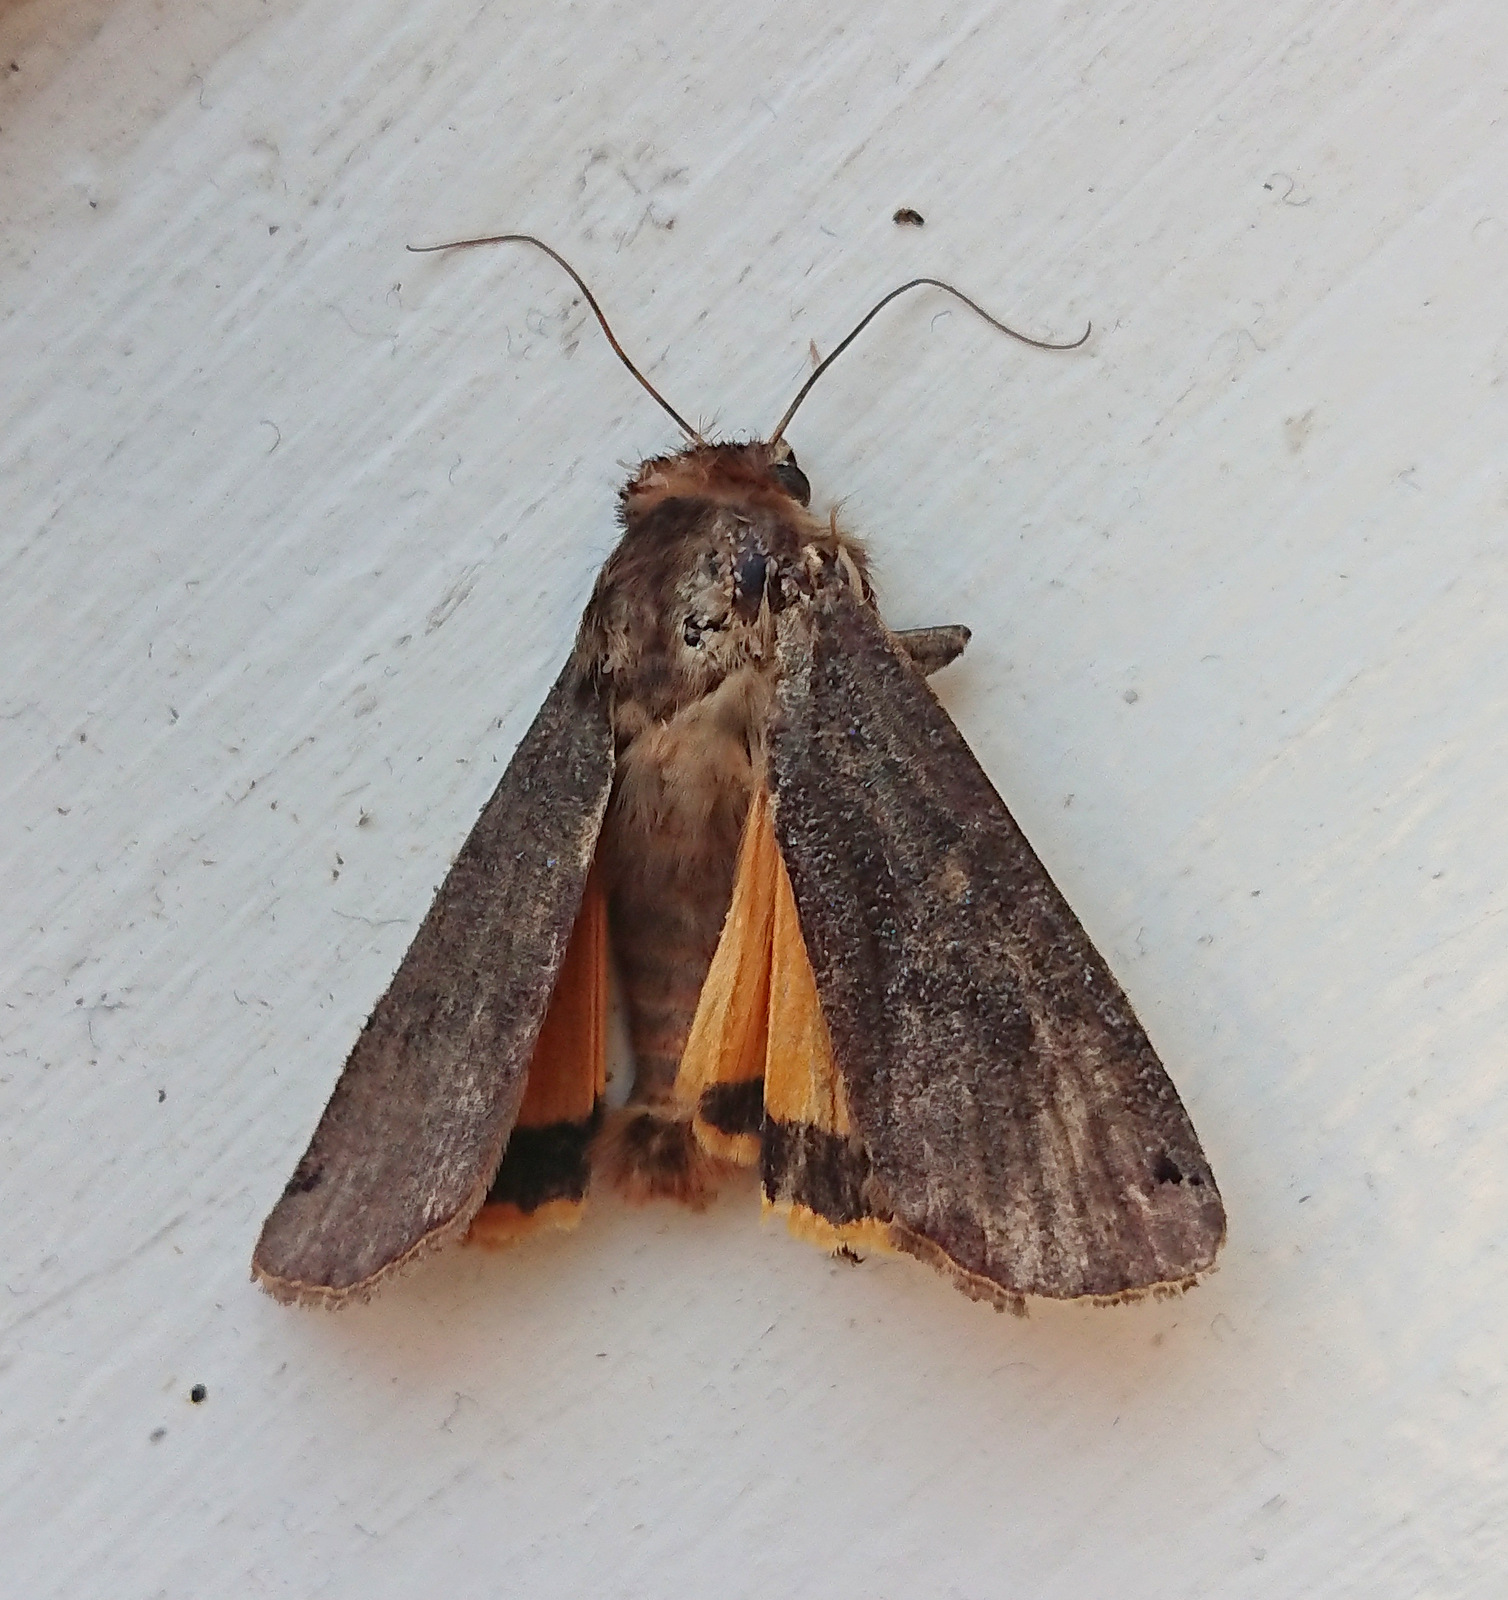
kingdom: Animalia
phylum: Arthropoda
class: Insecta
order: Lepidoptera
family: Noctuidae
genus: Noctua
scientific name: Noctua pronuba
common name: Large yellow underwing
